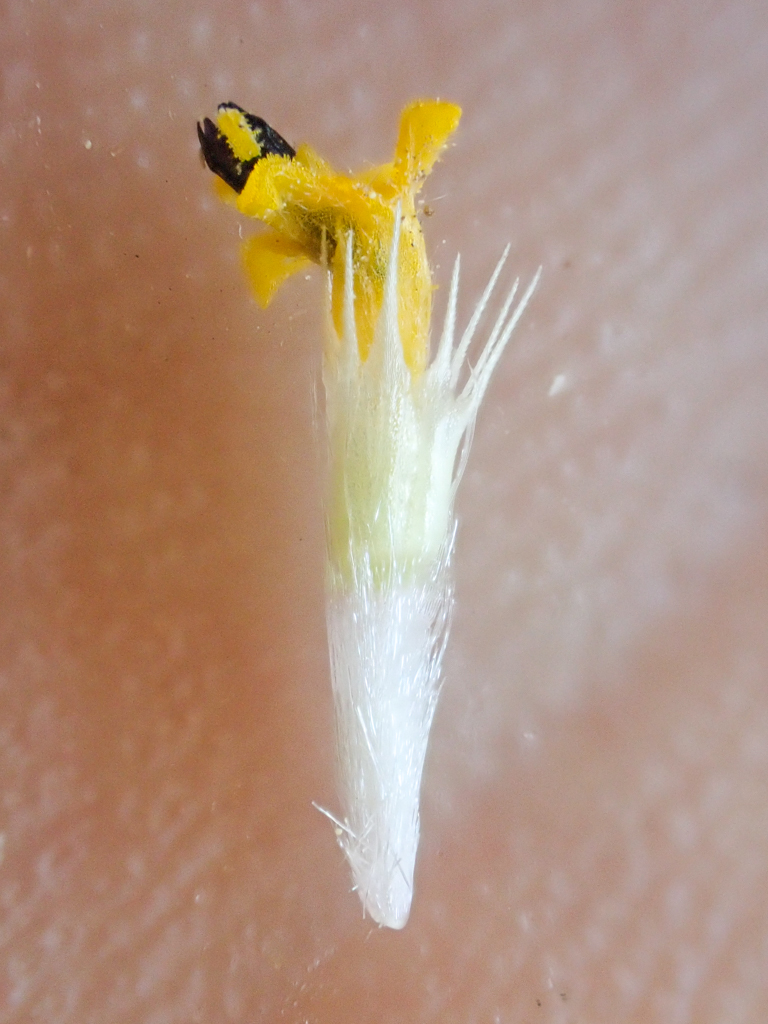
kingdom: Plantae
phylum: Tracheophyta
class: Magnoliopsida
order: Asterales
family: Asteraceae
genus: Layia
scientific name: Layia fremontii
